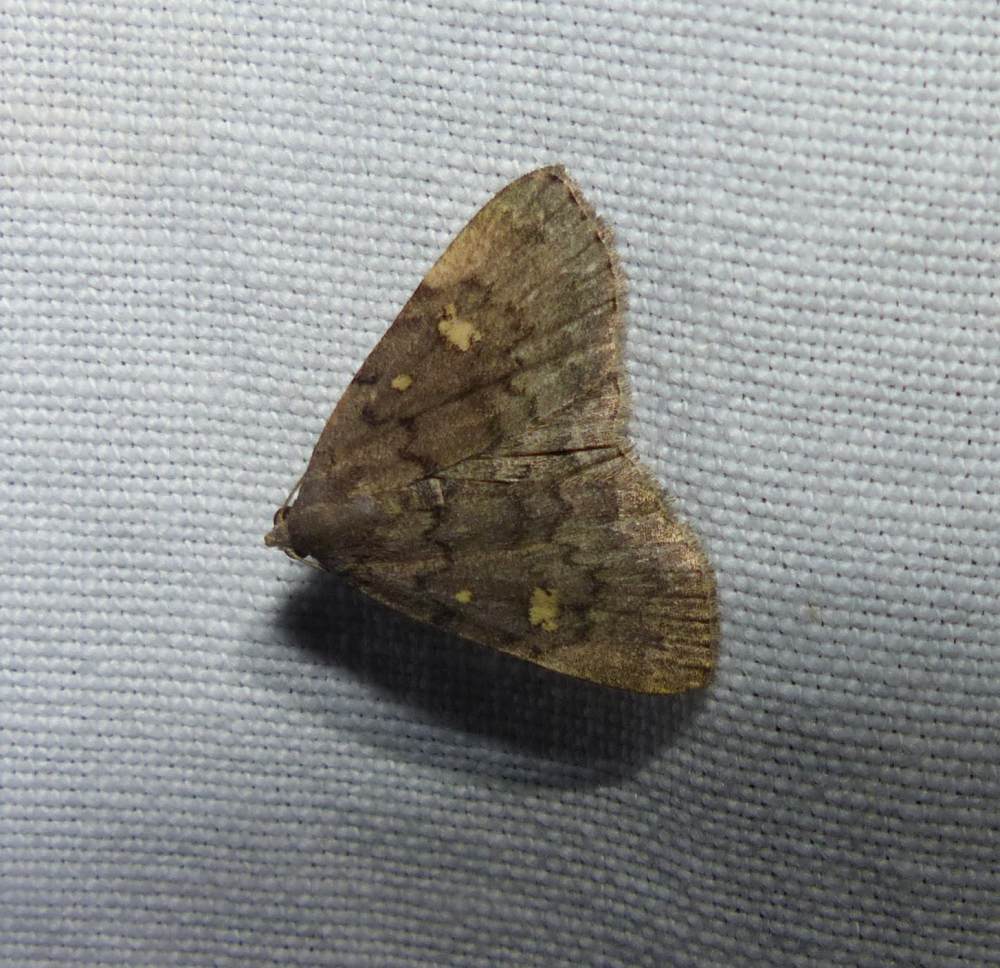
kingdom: Animalia
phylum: Arthropoda
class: Insecta
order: Lepidoptera
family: Erebidae
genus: Idia
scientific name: Idia aemula
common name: Common idia moth
